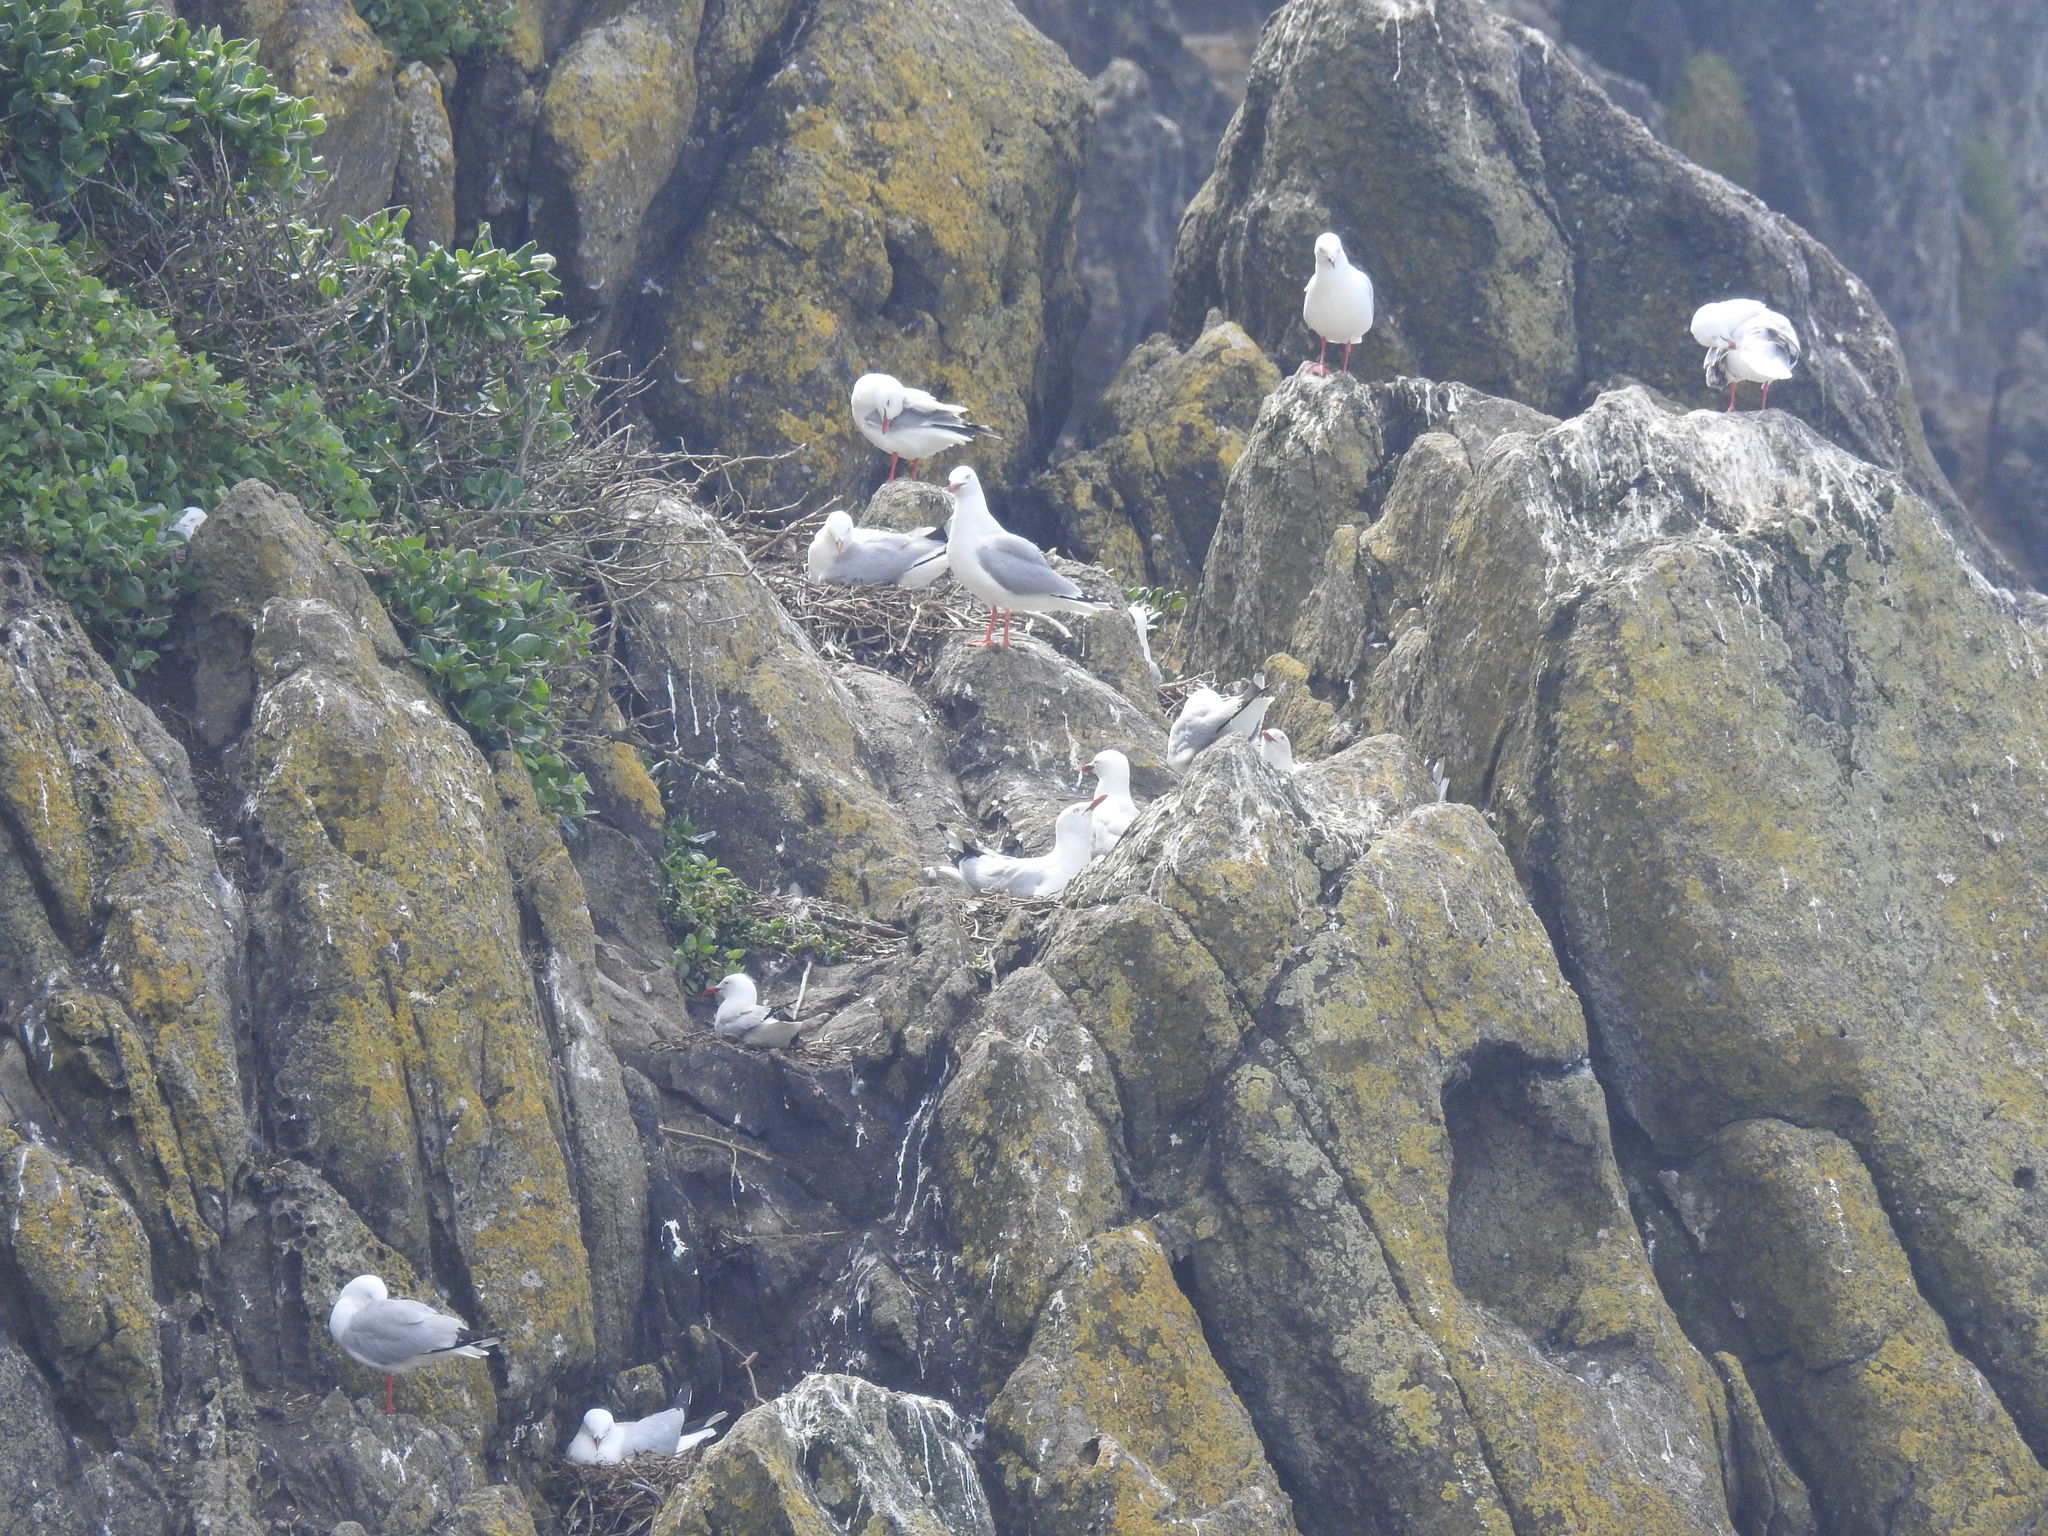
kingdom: Animalia
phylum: Chordata
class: Aves
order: Charadriiformes
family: Laridae
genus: Chroicocephalus
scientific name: Chroicocephalus novaehollandiae
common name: Silver gull
